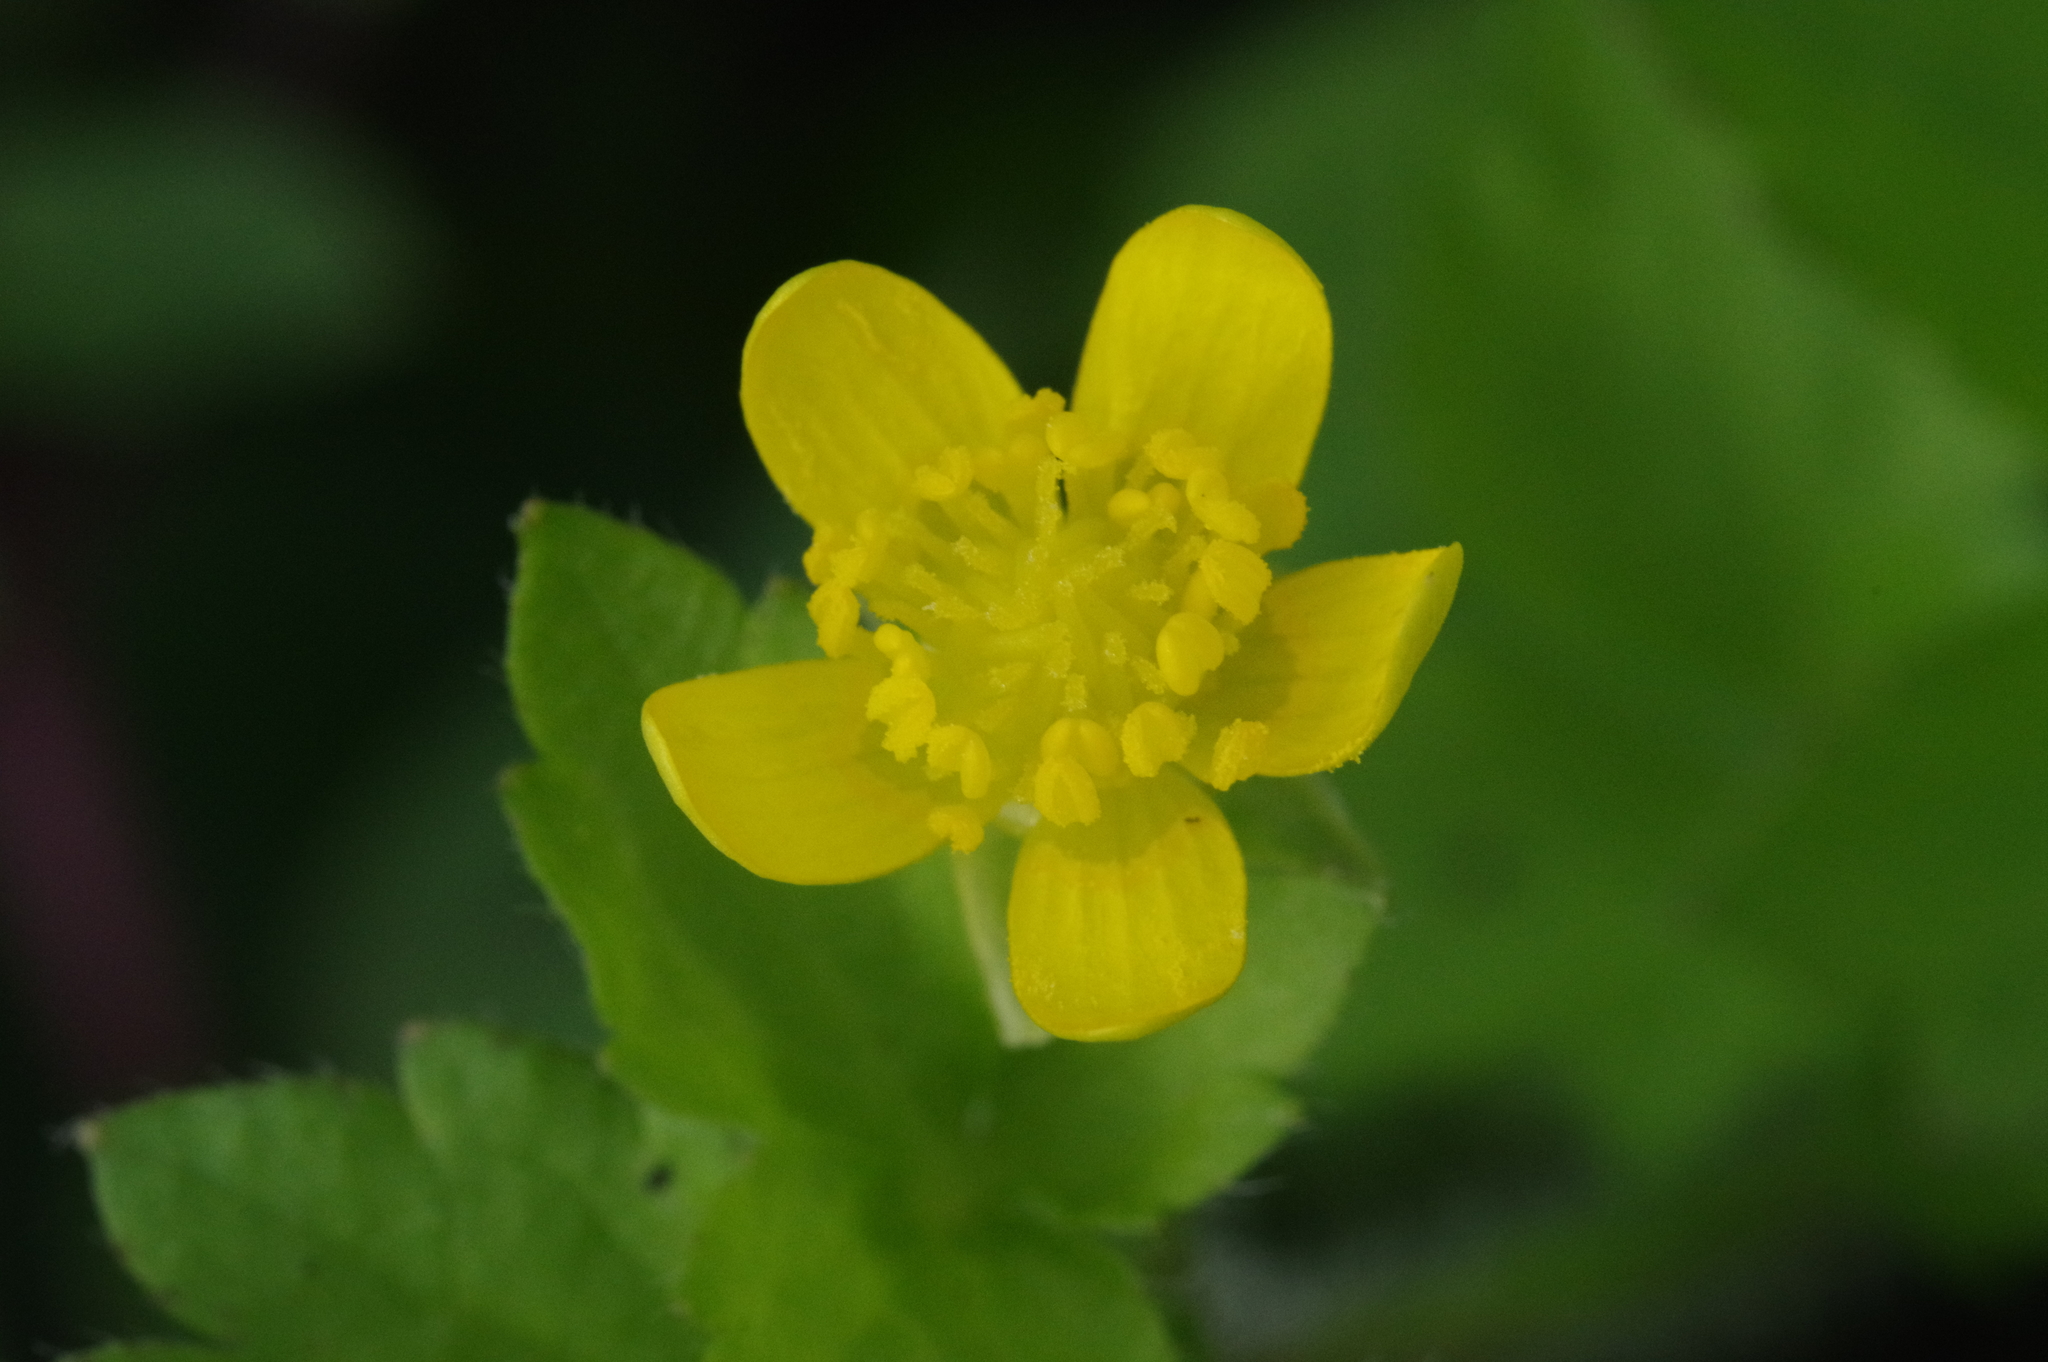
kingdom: Plantae
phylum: Tracheophyta
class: Magnoliopsida
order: Ranunculales
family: Ranunculaceae
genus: Ranunculus
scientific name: Ranunculus sieboldii
